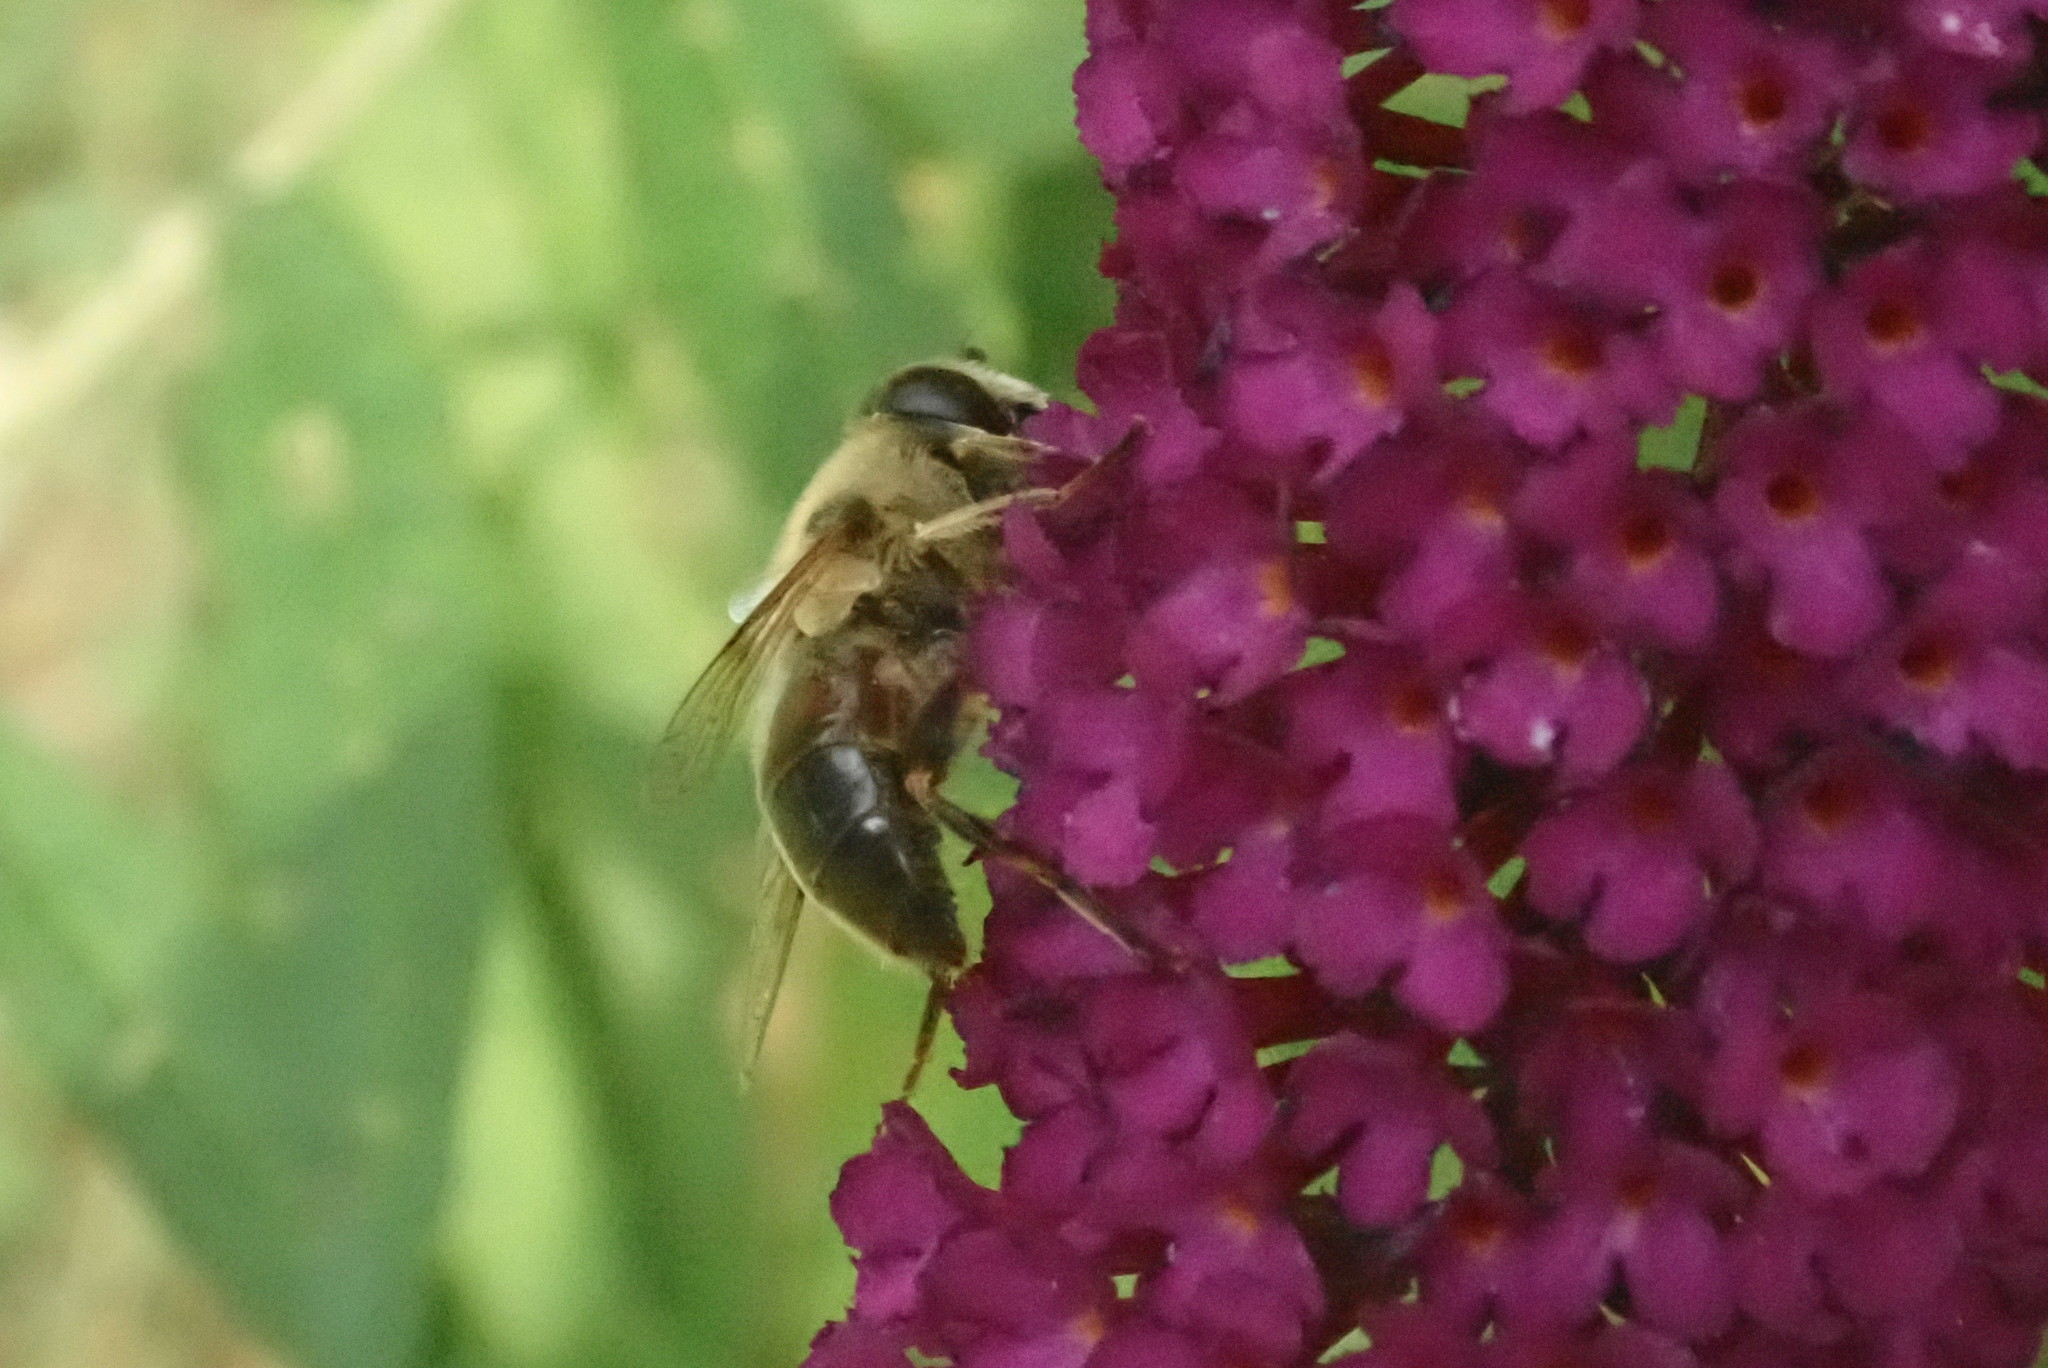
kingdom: Animalia
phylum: Arthropoda
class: Insecta
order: Diptera
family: Syrphidae
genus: Eristalis
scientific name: Eristalis tenax
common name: Drone fly
